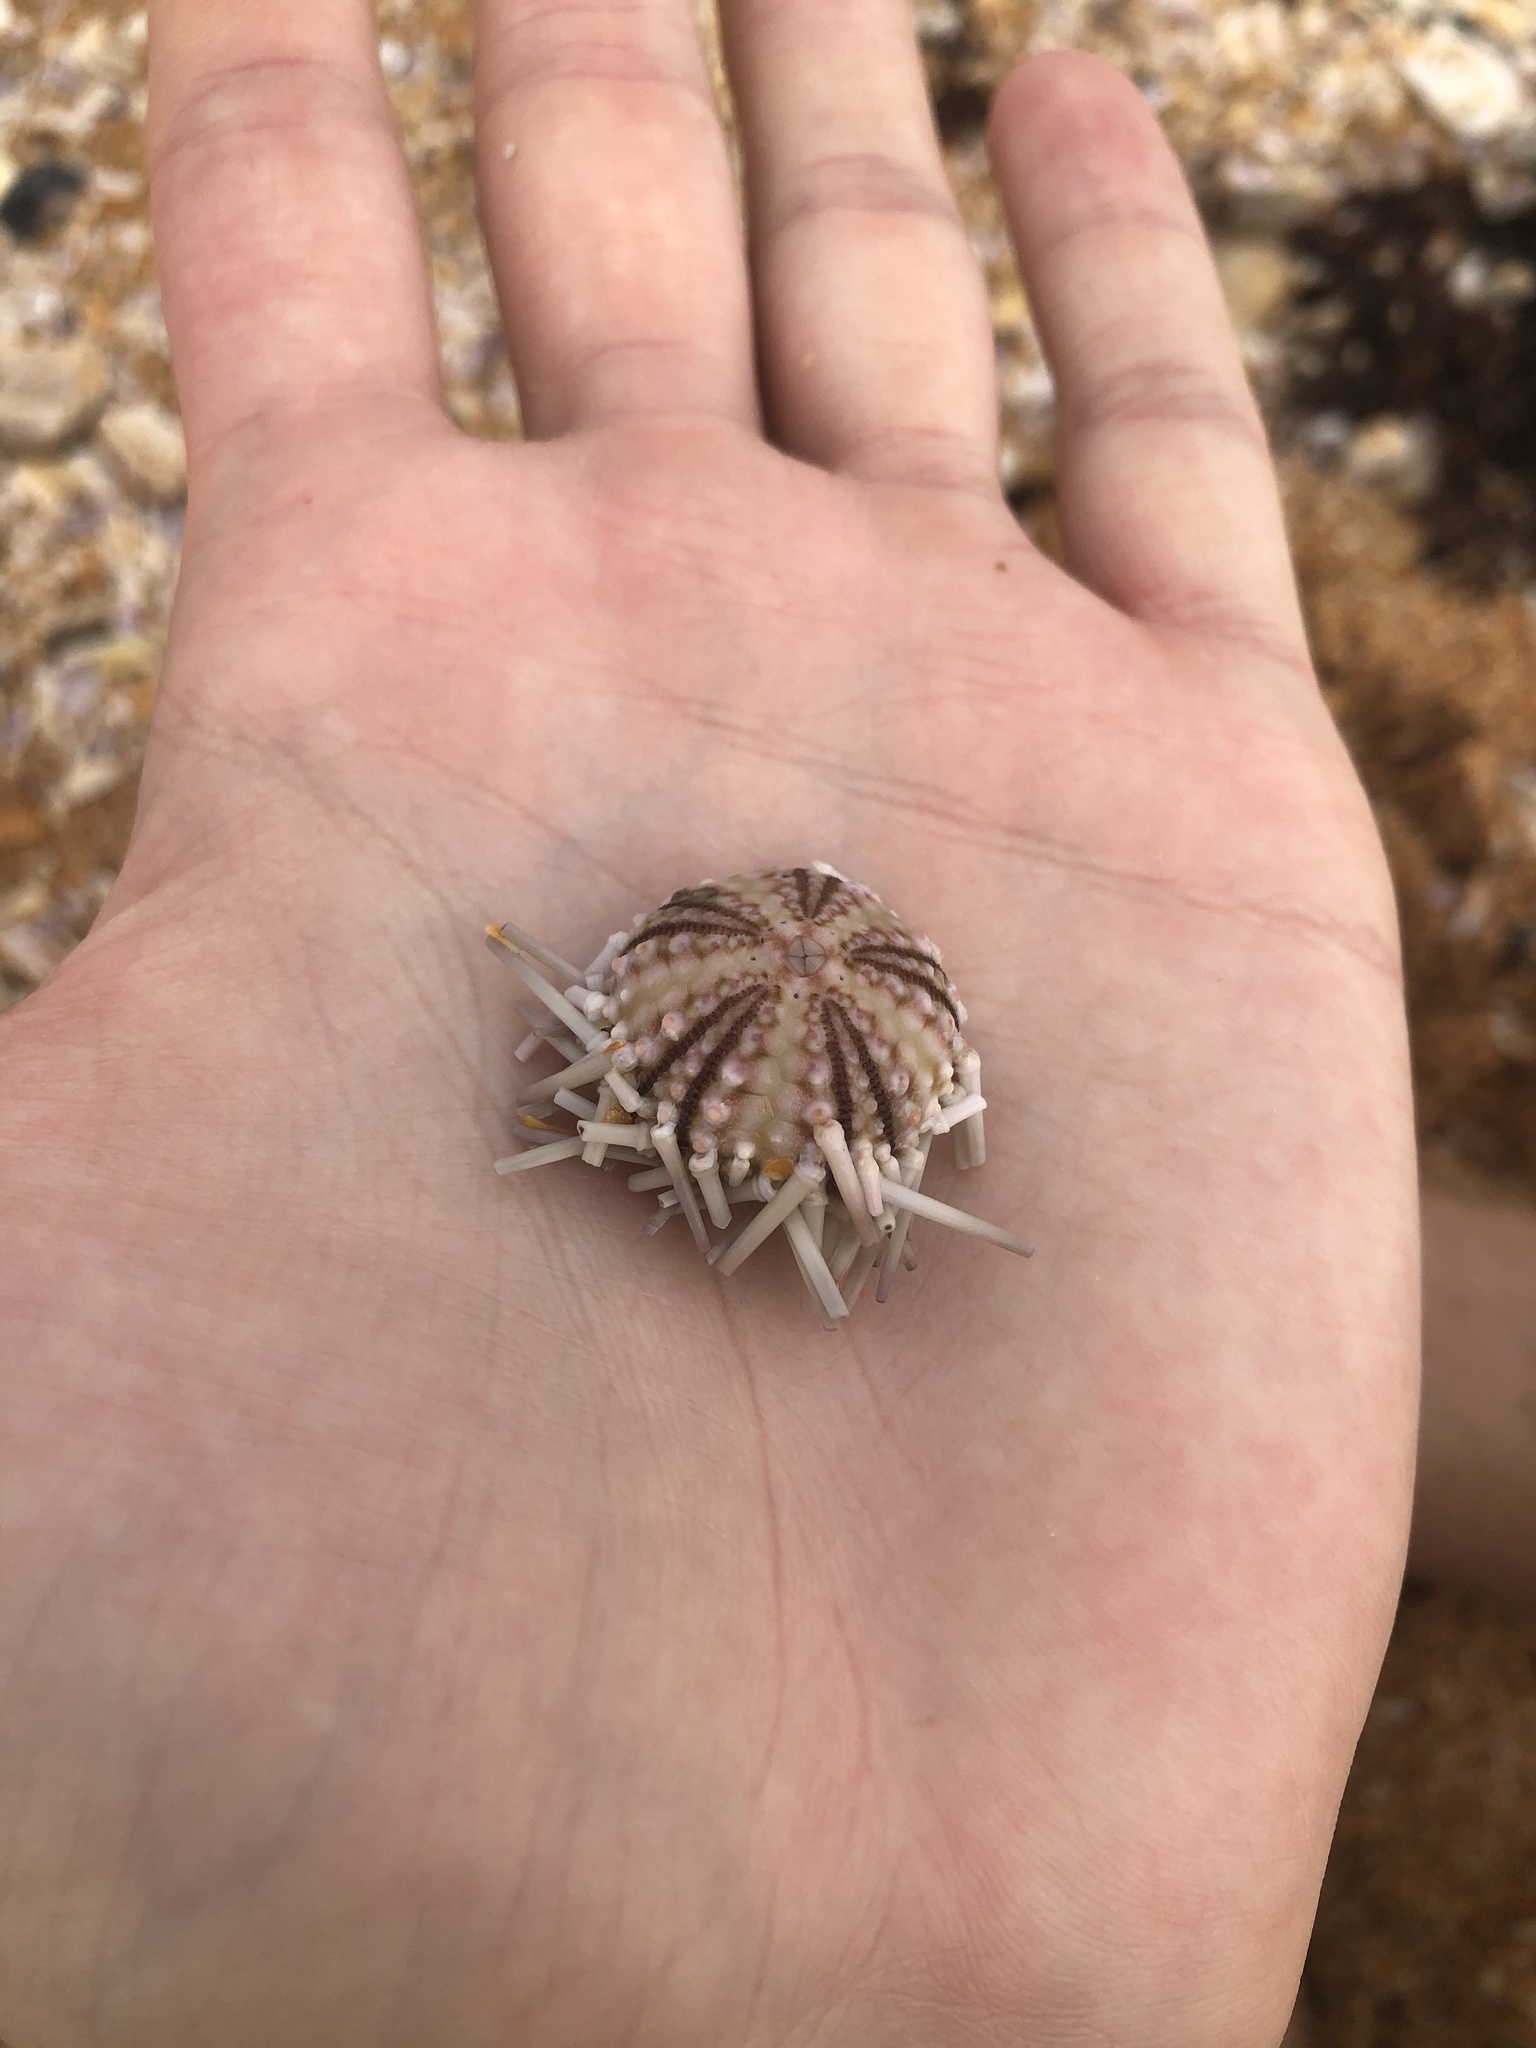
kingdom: Animalia
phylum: Echinodermata
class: Echinoidea
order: Arbacioida
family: Arbaciidae
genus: Arbacia
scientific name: Arbacia punctulata
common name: Purple-spined sea urchin
